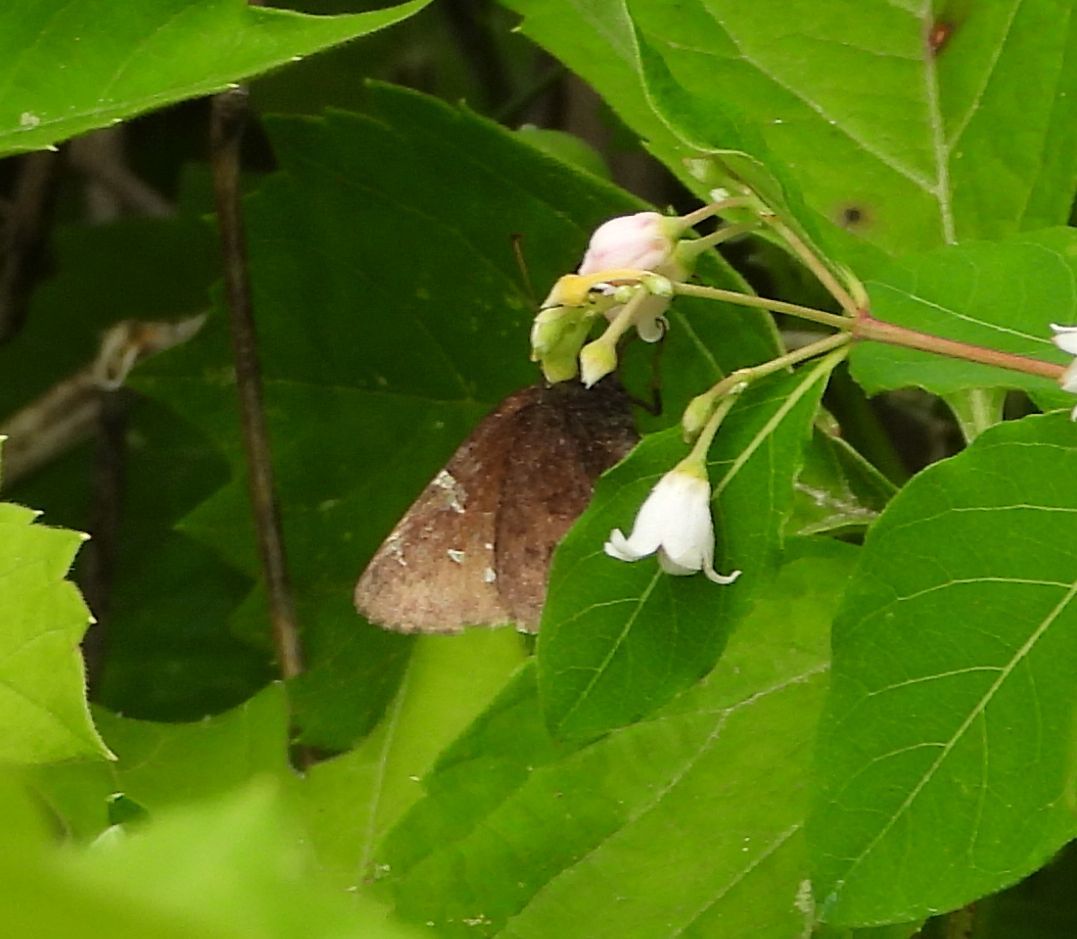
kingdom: Animalia
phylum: Arthropoda
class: Insecta
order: Lepidoptera
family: Hesperiidae
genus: Thorybes
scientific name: Thorybes pylades
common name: Northern cloudywing
